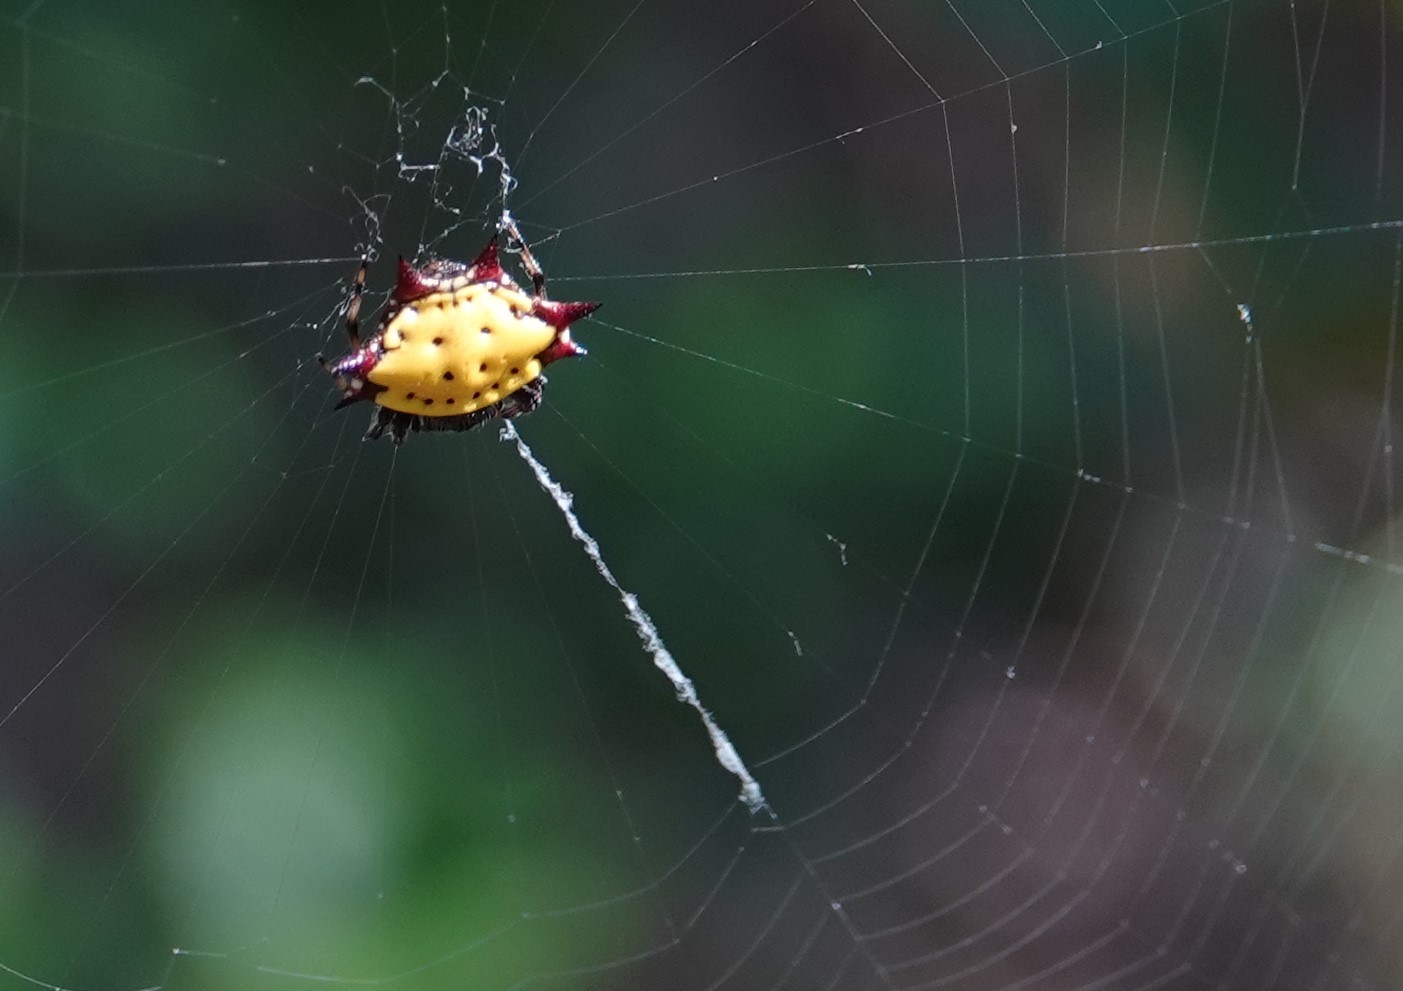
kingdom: Animalia
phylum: Arthropoda
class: Arachnida
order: Araneae
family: Araneidae
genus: Gasteracantha
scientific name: Gasteracantha cancriformis
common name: Orb weavers
